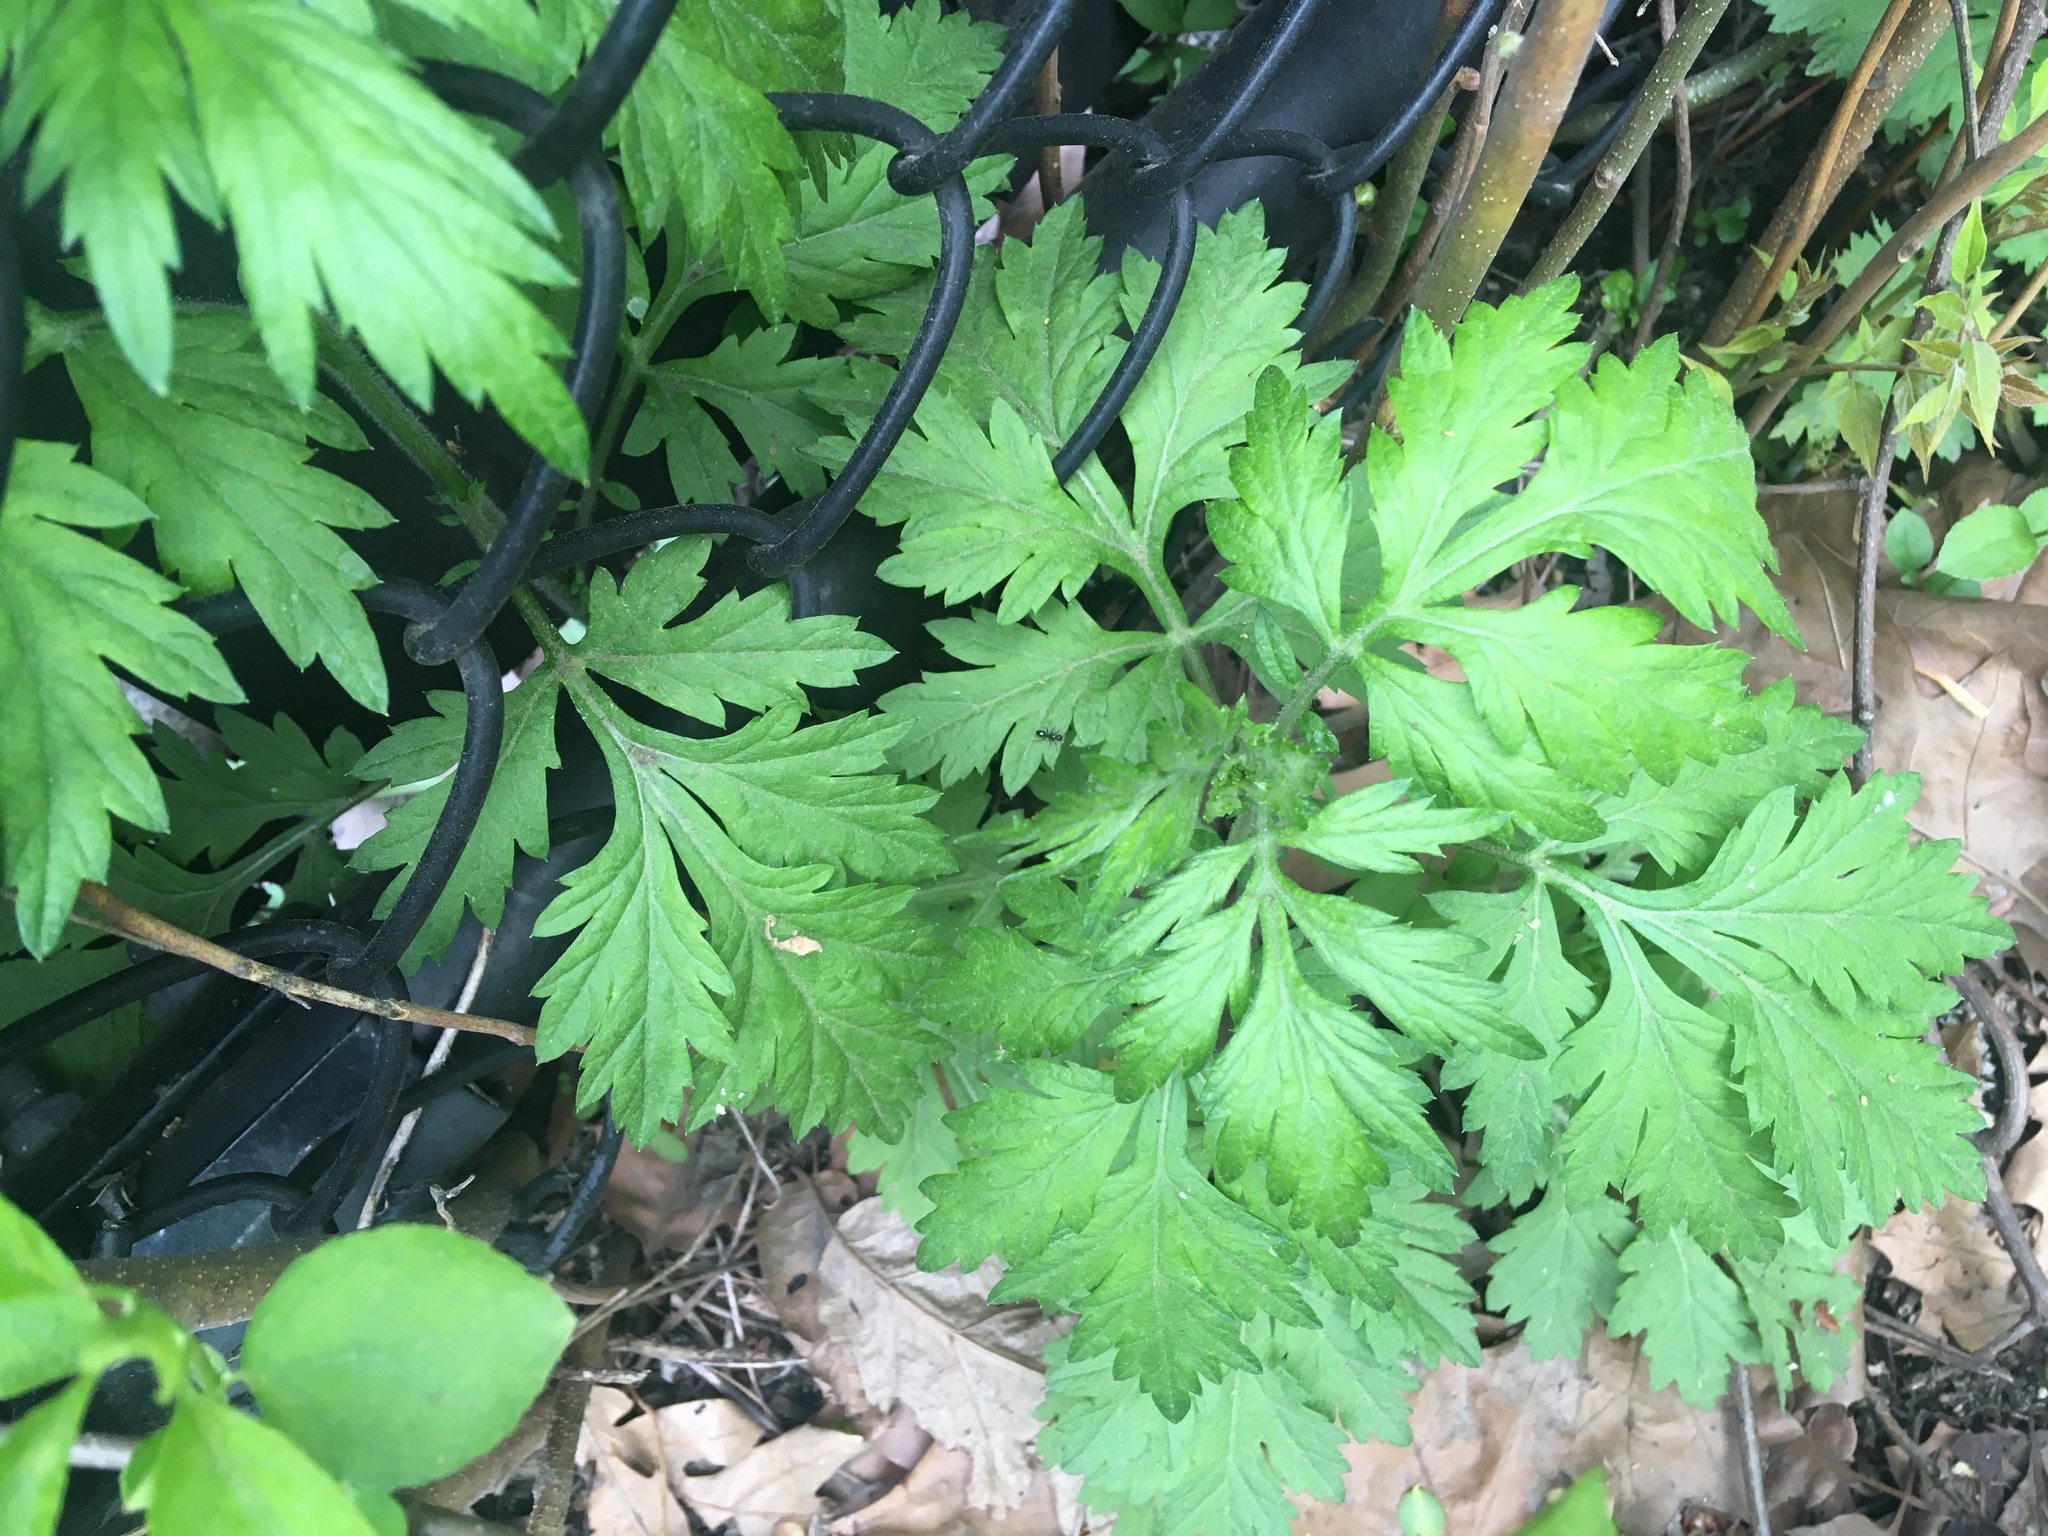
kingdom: Plantae
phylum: Tracheophyta
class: Magnoliopsida
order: Asterales
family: Asteraceae
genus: Artemisia
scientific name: Artemisia vulgaris
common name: Mugwort
